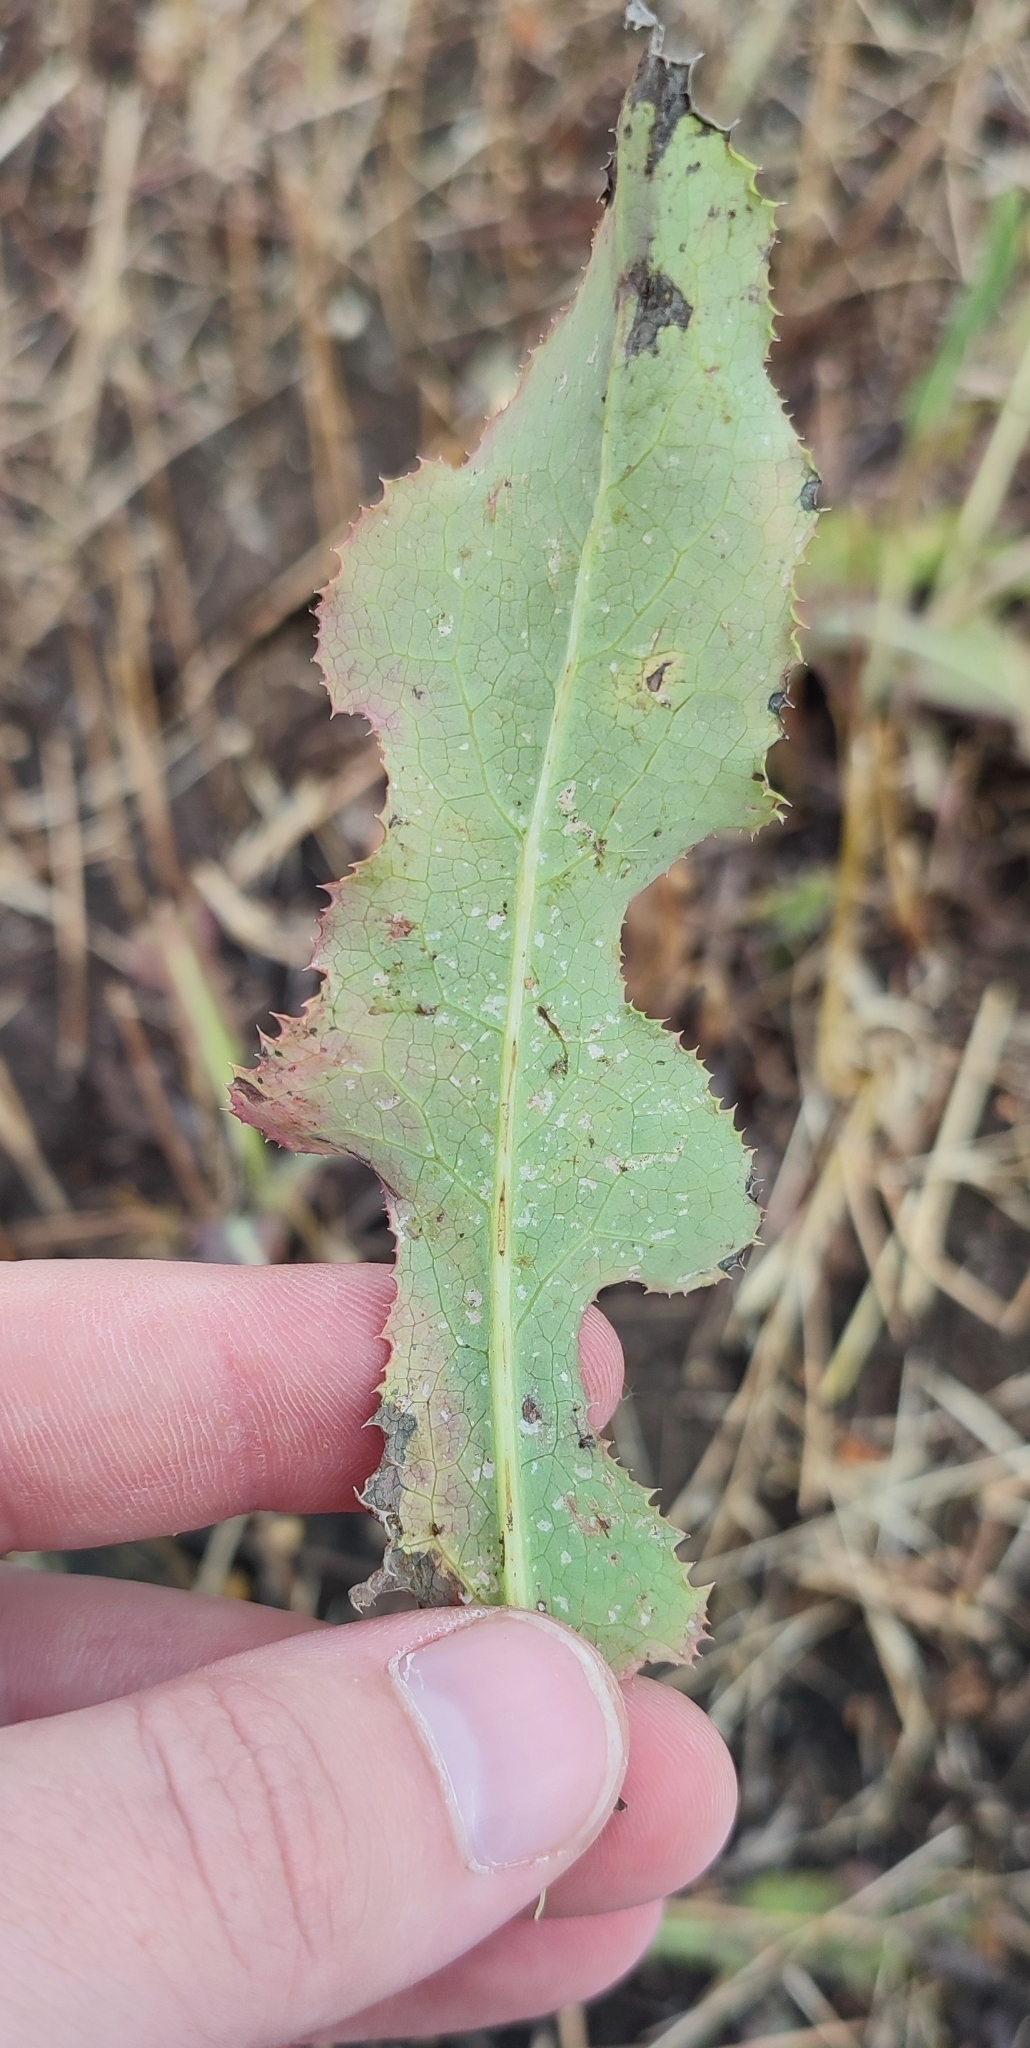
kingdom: Plantae
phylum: Tracheophyta
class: Magnoliopsida
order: Asterales
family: Asteraceae
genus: Sonchus
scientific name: Sonchus arvensis
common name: Perennial sow-thistle
